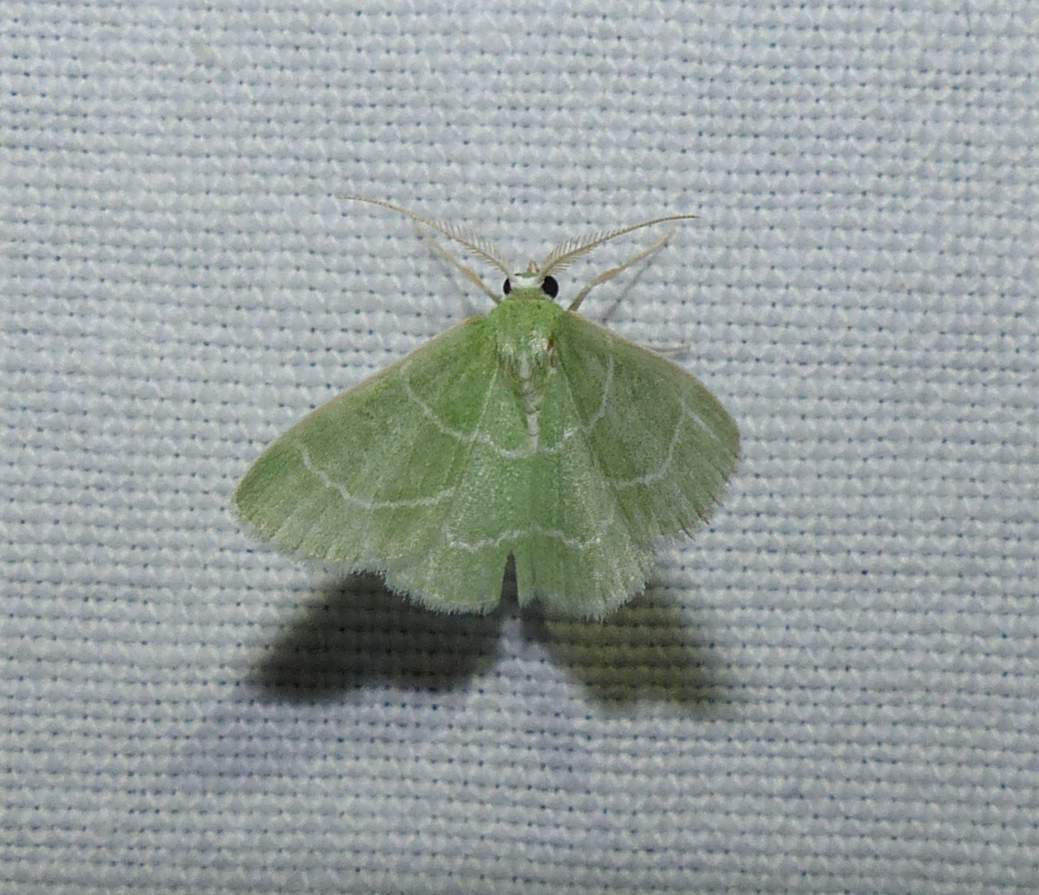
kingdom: Animalia
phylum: Arthropoda
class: Insecta
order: Lepidoptera
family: Geometridae
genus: Synchlora
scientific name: Synchlora aerata
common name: Wavy-lined emerald
